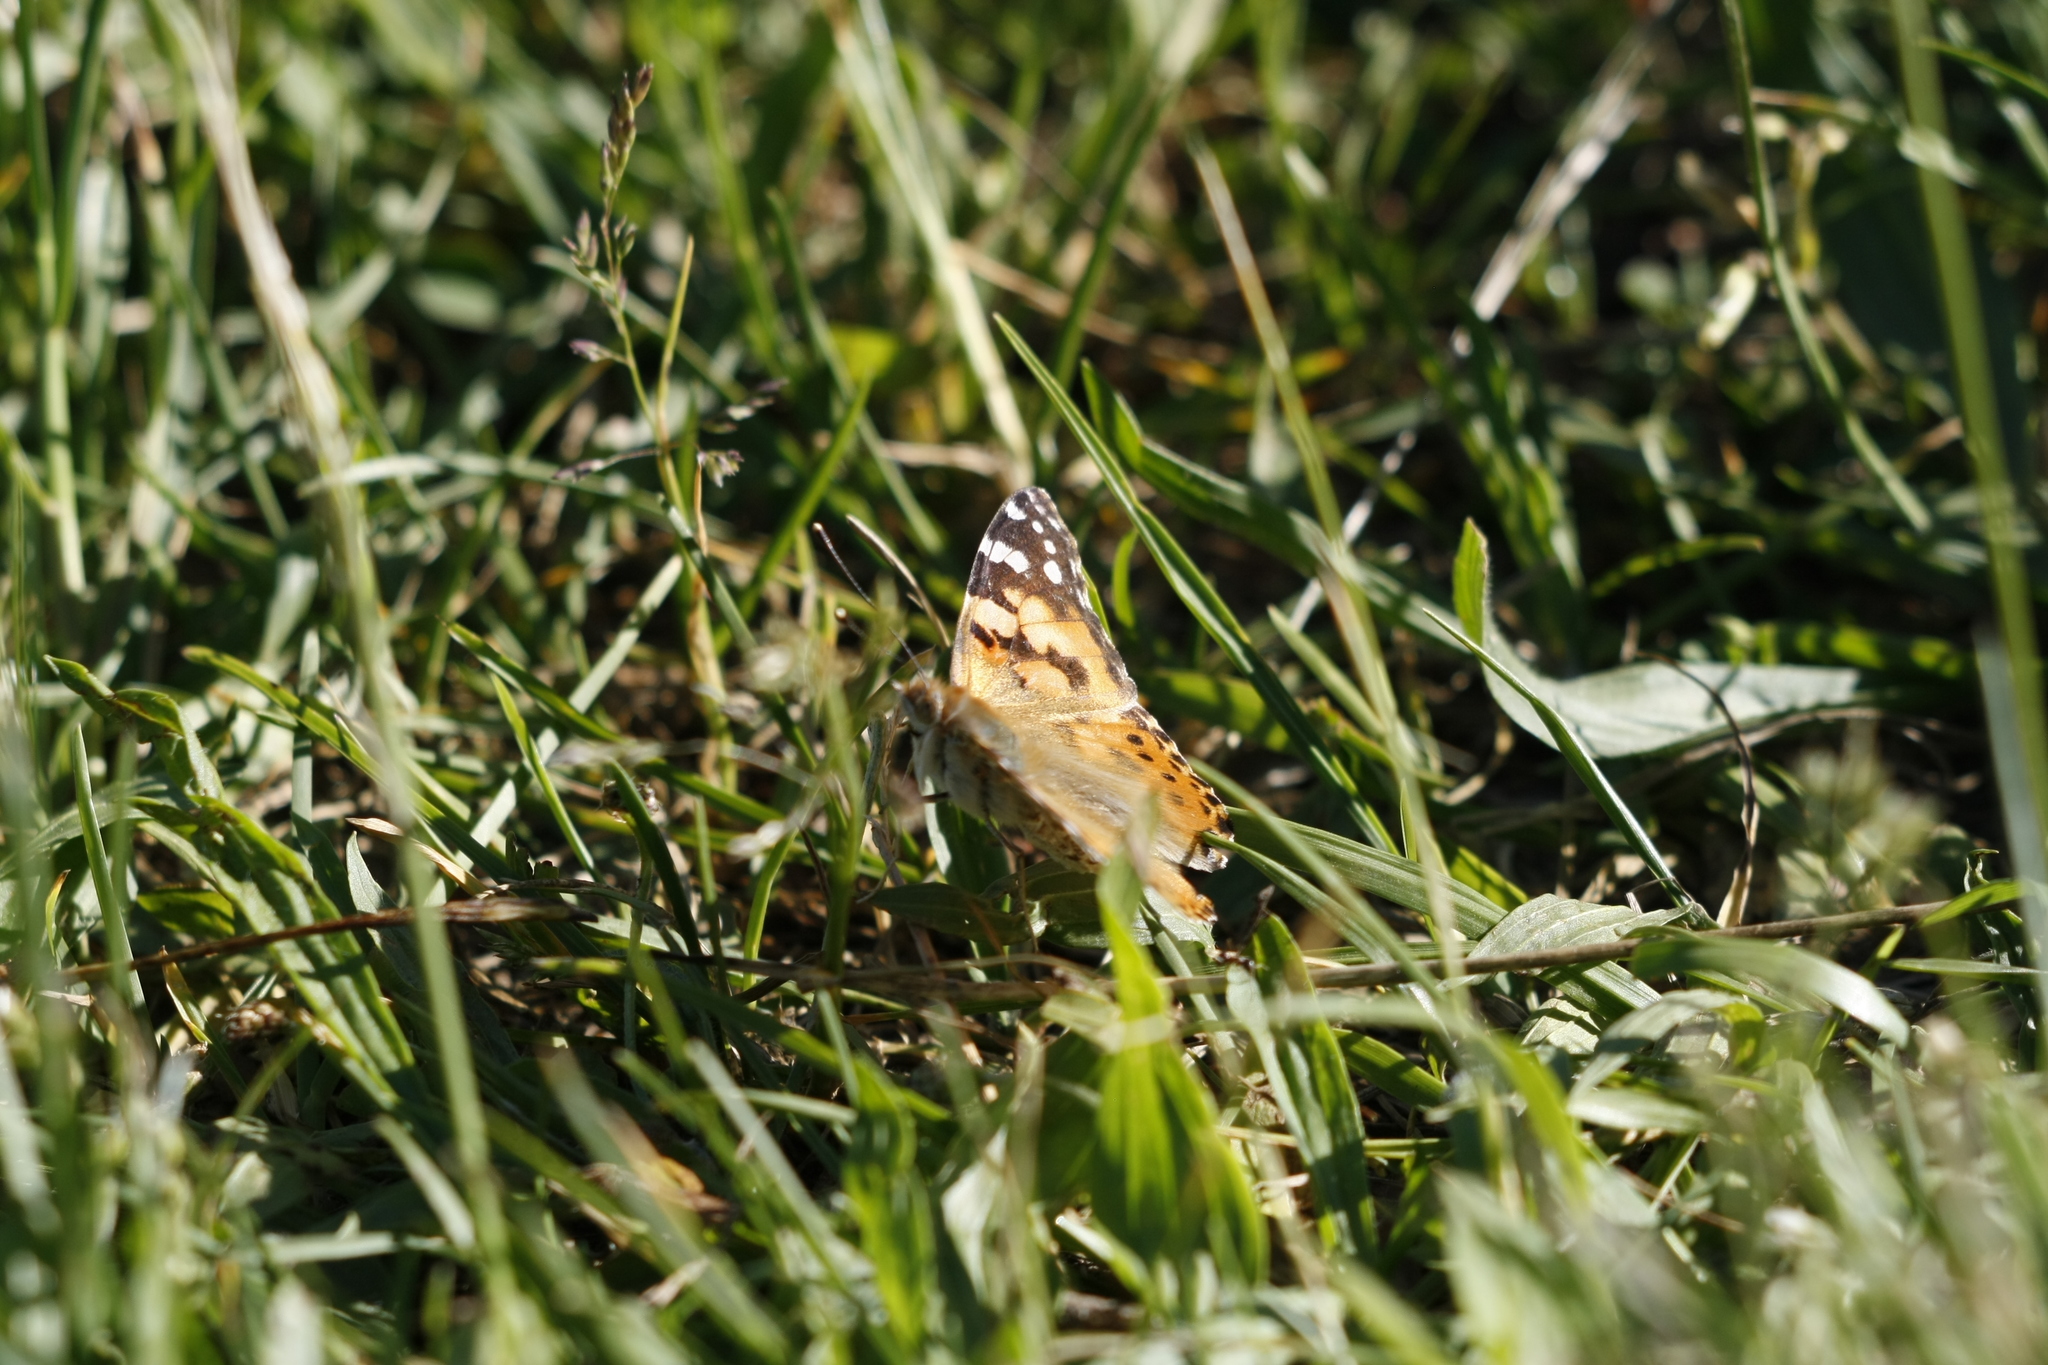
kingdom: Animalia
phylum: Arthropoda
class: Insecta
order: Lepidoptera
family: Nymphalidae
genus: Vanessa
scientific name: Vanessa cardui
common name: Painted lady
